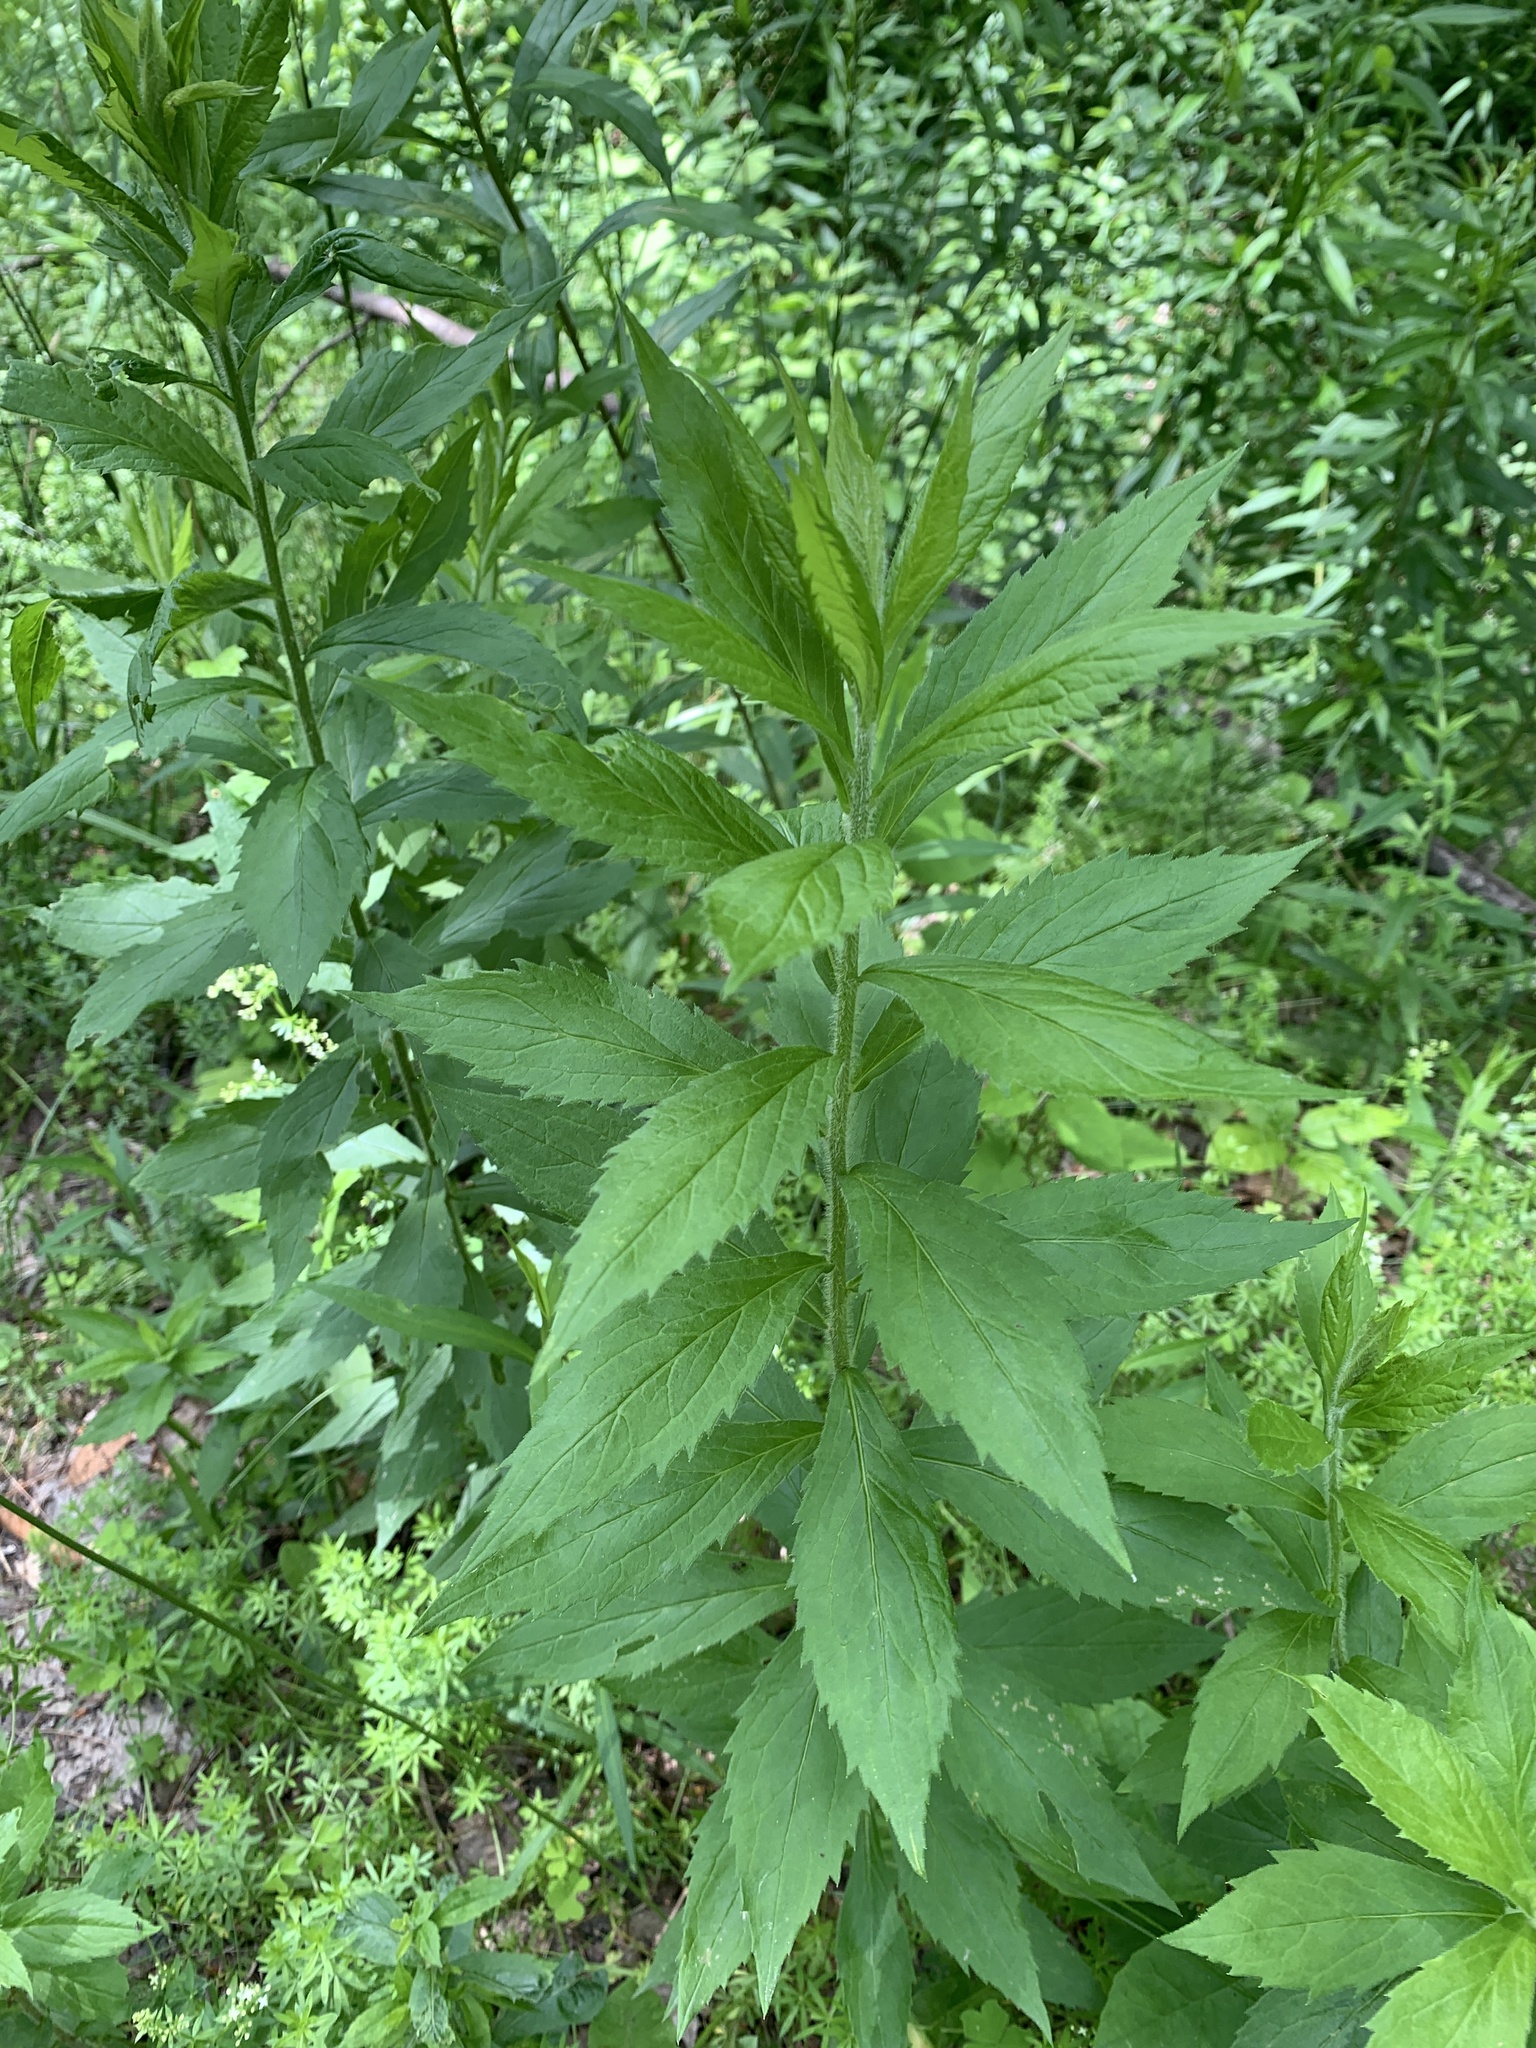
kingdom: Plantae
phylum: Tracheophyta
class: Magnoliopsida
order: Asterales
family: Asteraceae
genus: Solidago
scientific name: Solidago rugosa
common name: Rough-stemmed goldenrod
